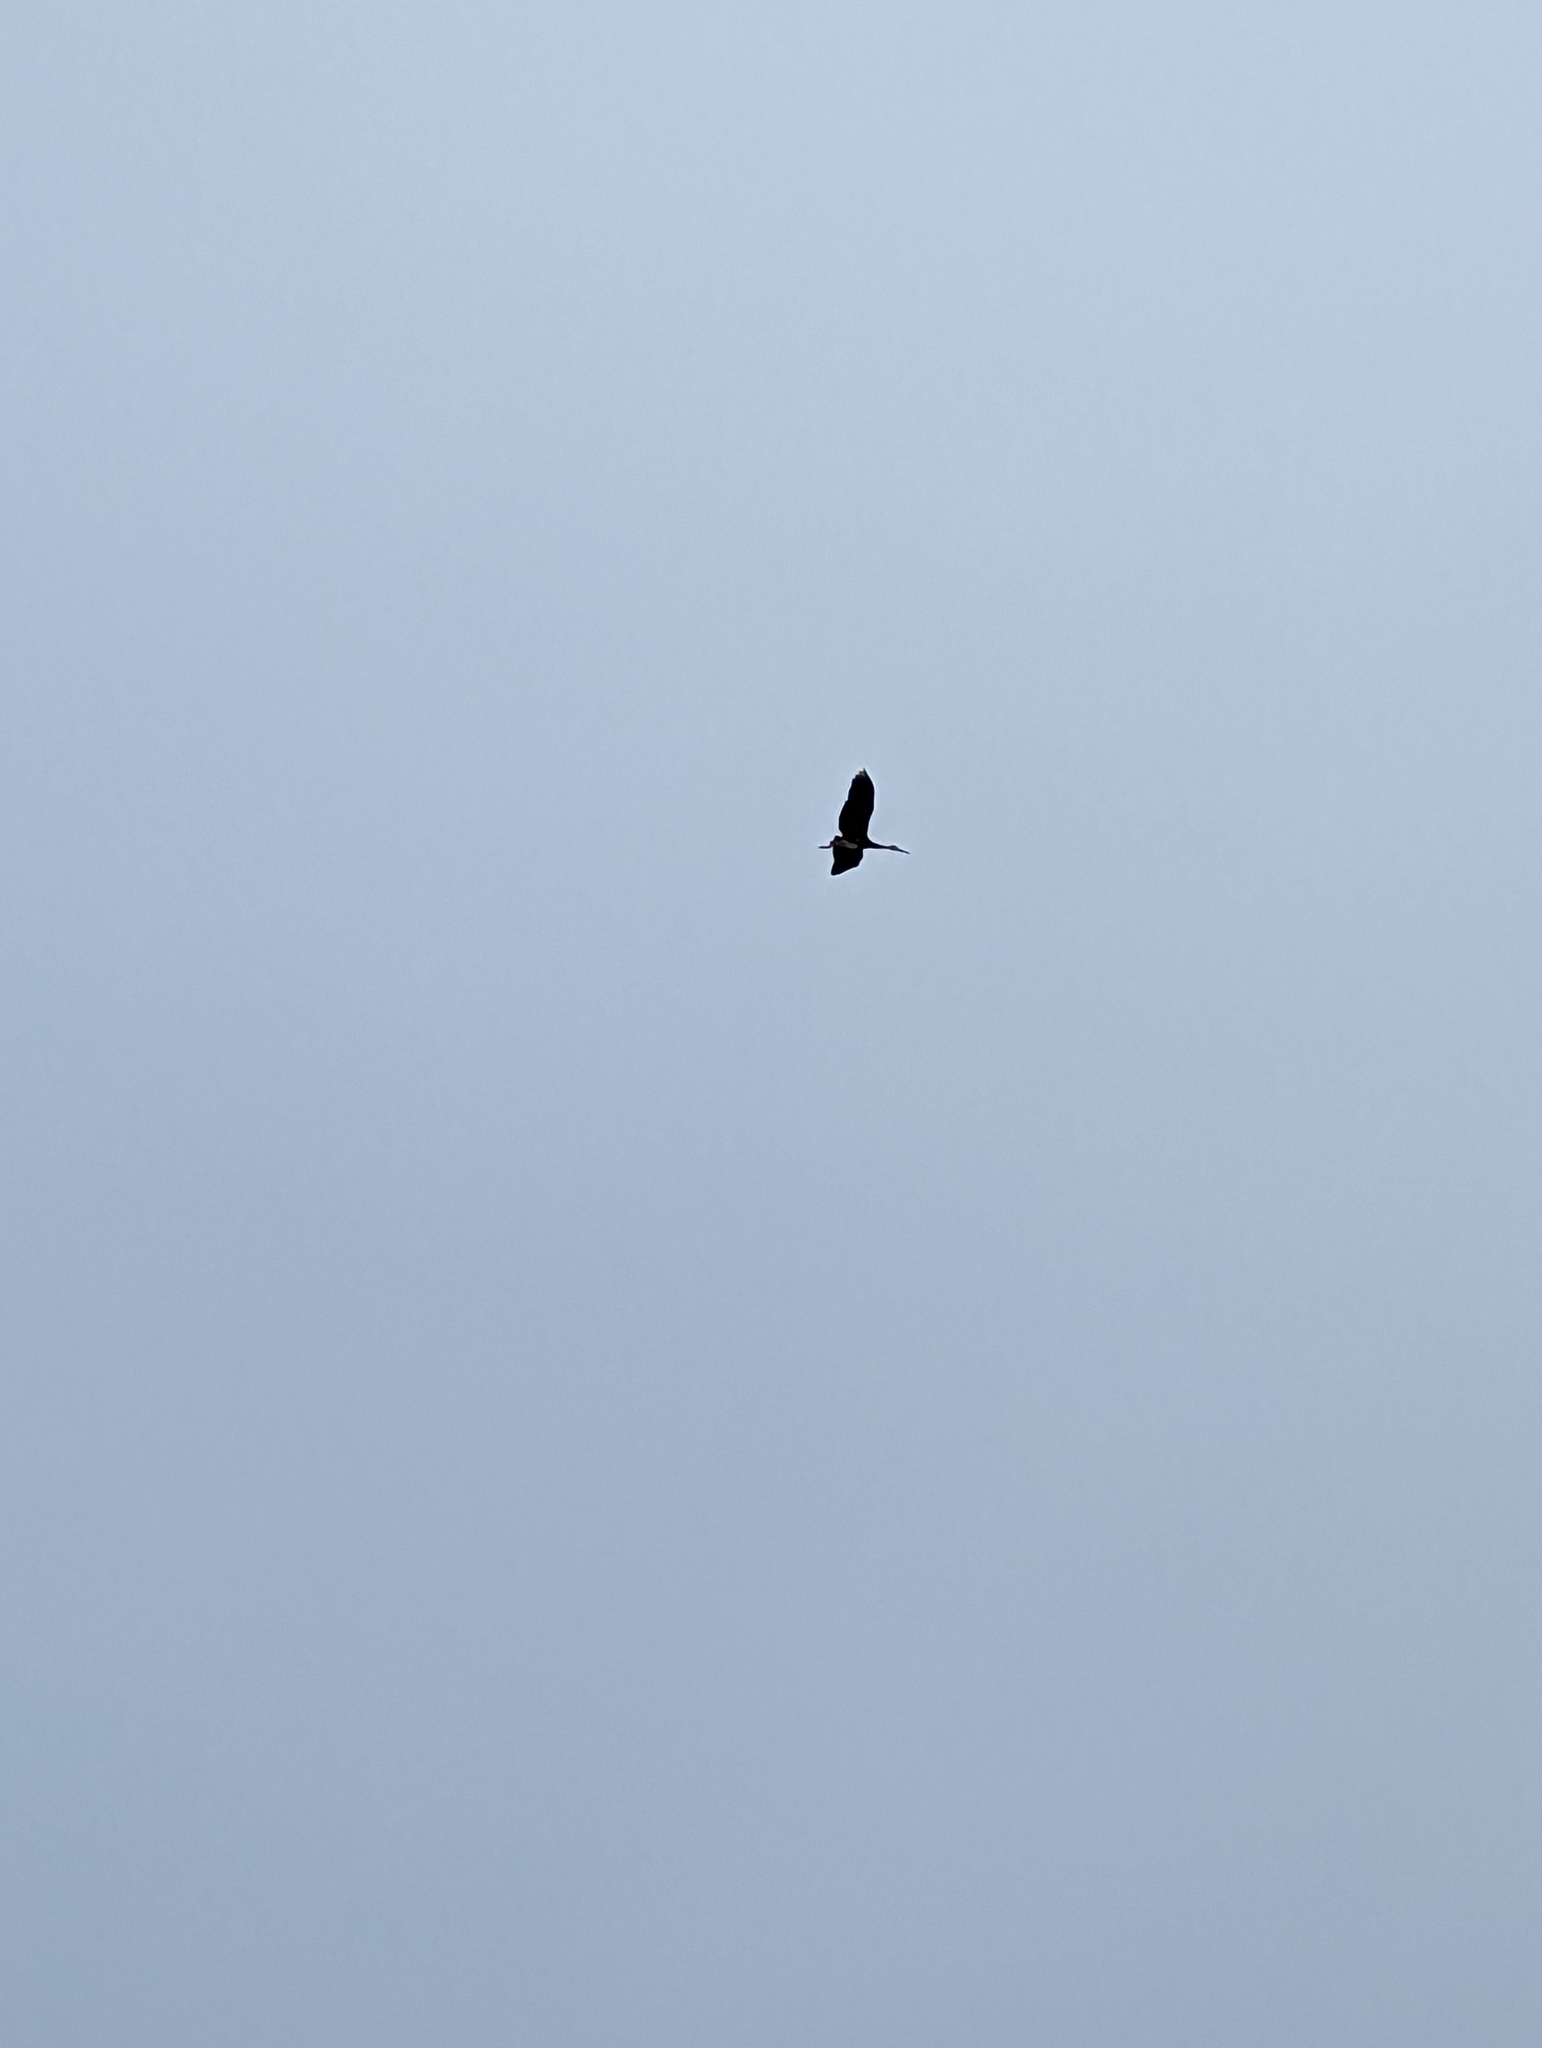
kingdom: Animalia
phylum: Chordata
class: Aves
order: Ciconiiformes
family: Ciconiidae
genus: Ciconia
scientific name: Ciconia stormi
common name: Storm's stork
